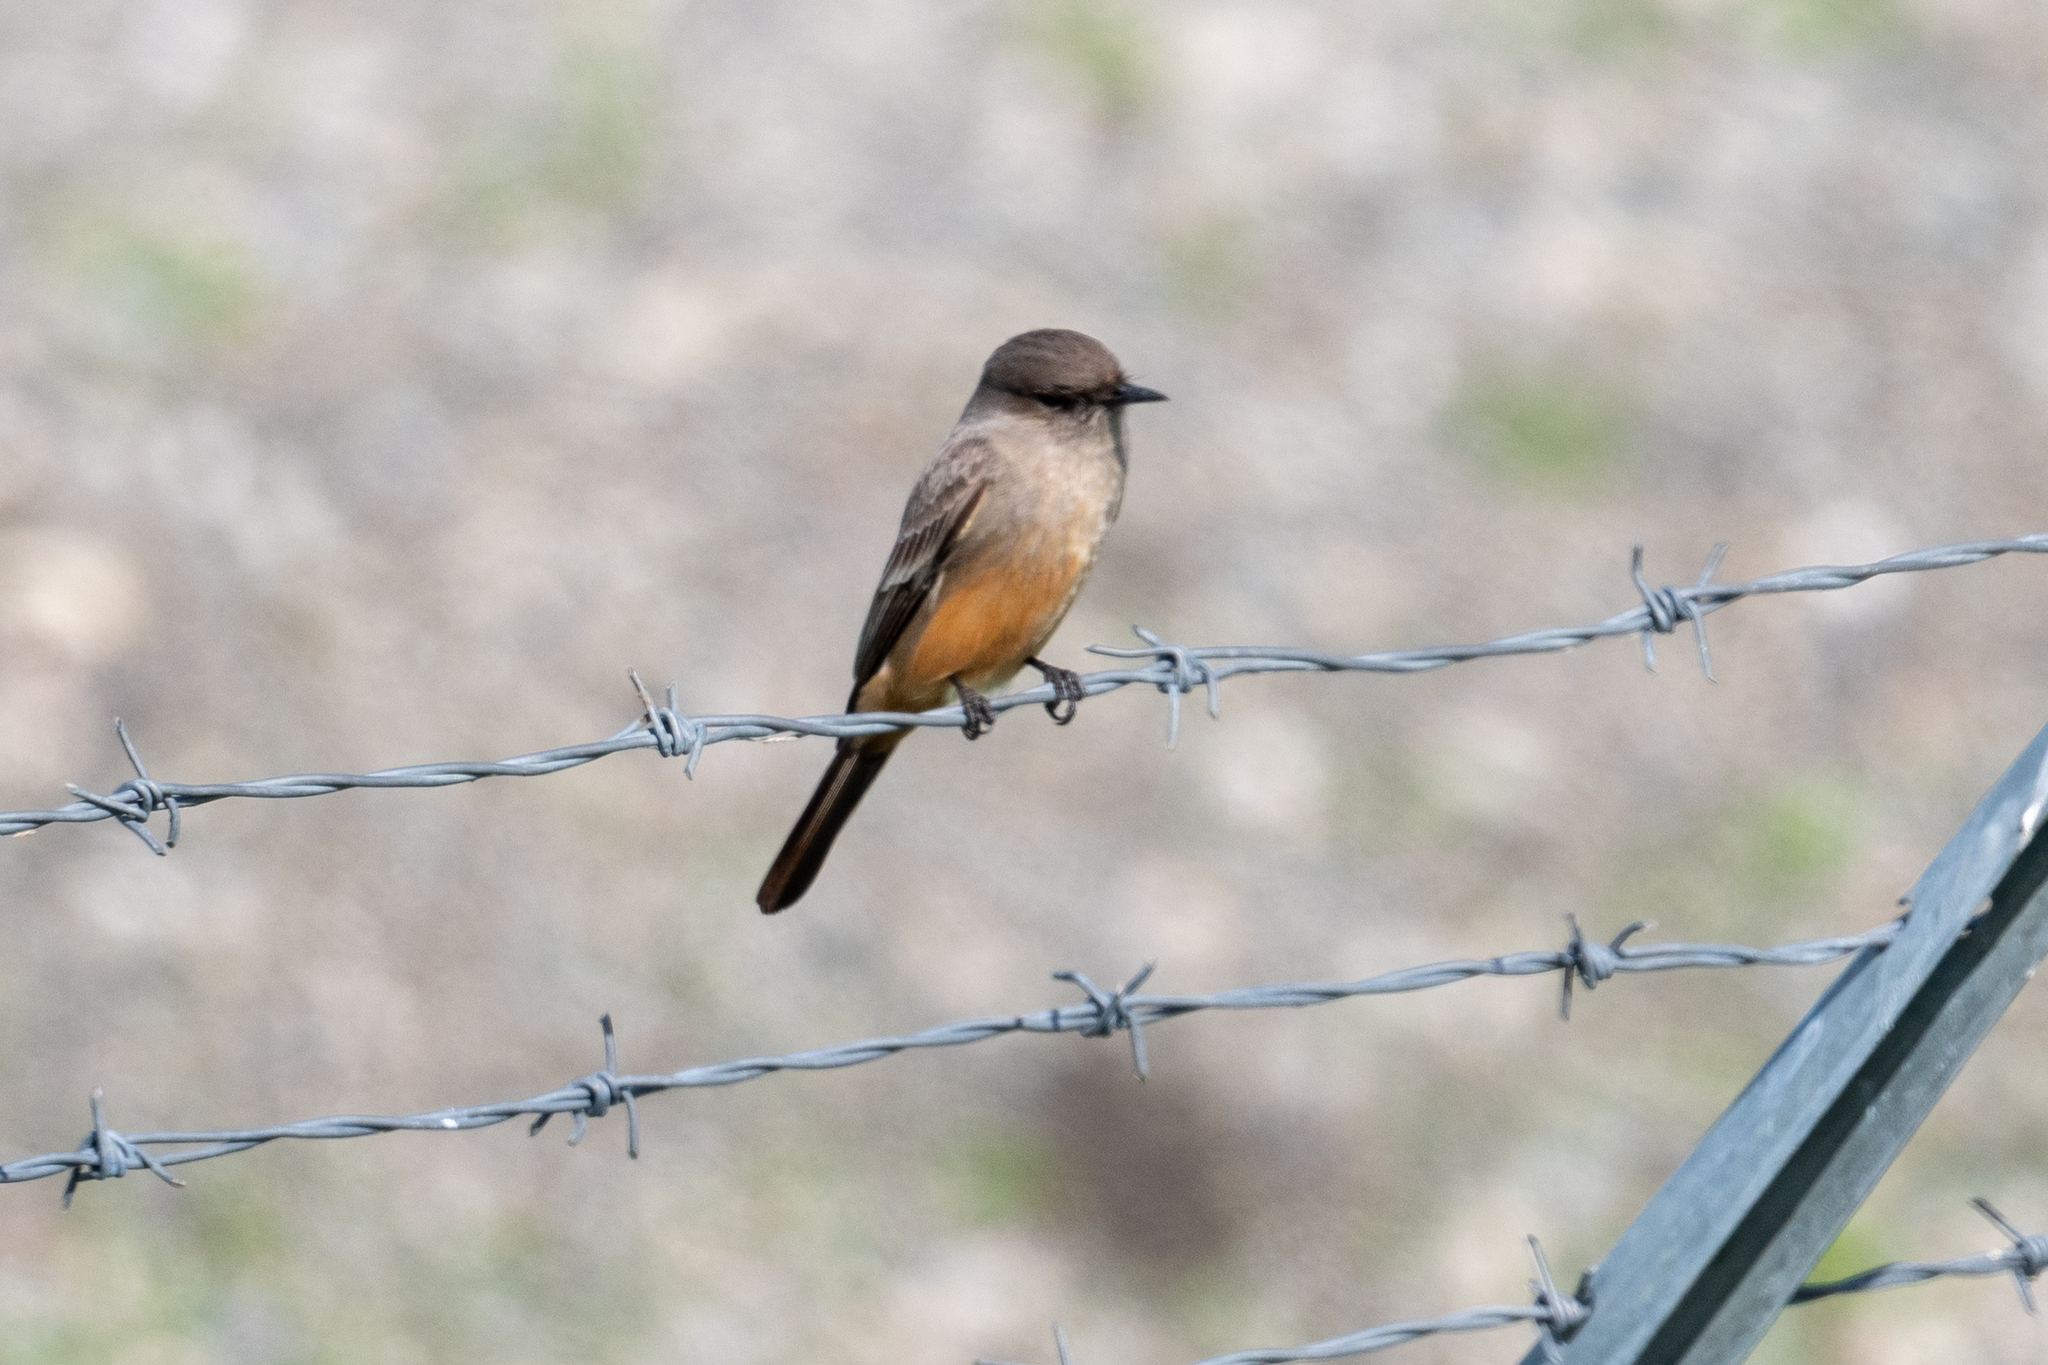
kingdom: Animalia
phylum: Chordata
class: Aves
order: Passeriformes
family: Tyrannidae
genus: Sayornis
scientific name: Sayornis saya
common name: Say's phoebe
